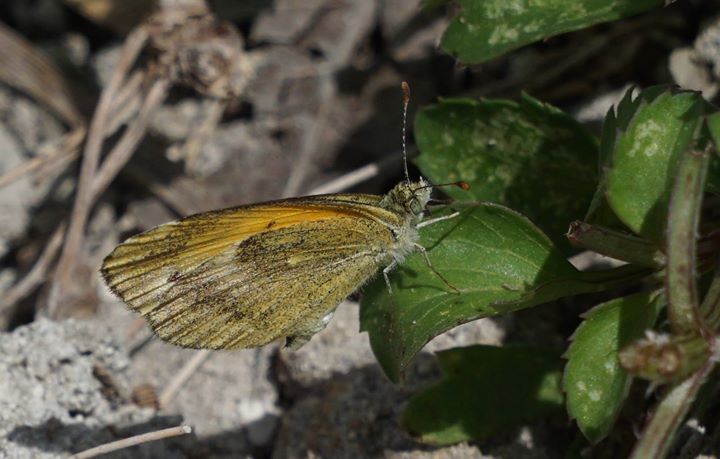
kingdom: Animalia
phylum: Arthropoda
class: Insecta
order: Lepidoptera
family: Pieridae
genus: Nathalis
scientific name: Nathalis iole
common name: Dainty sulphur
